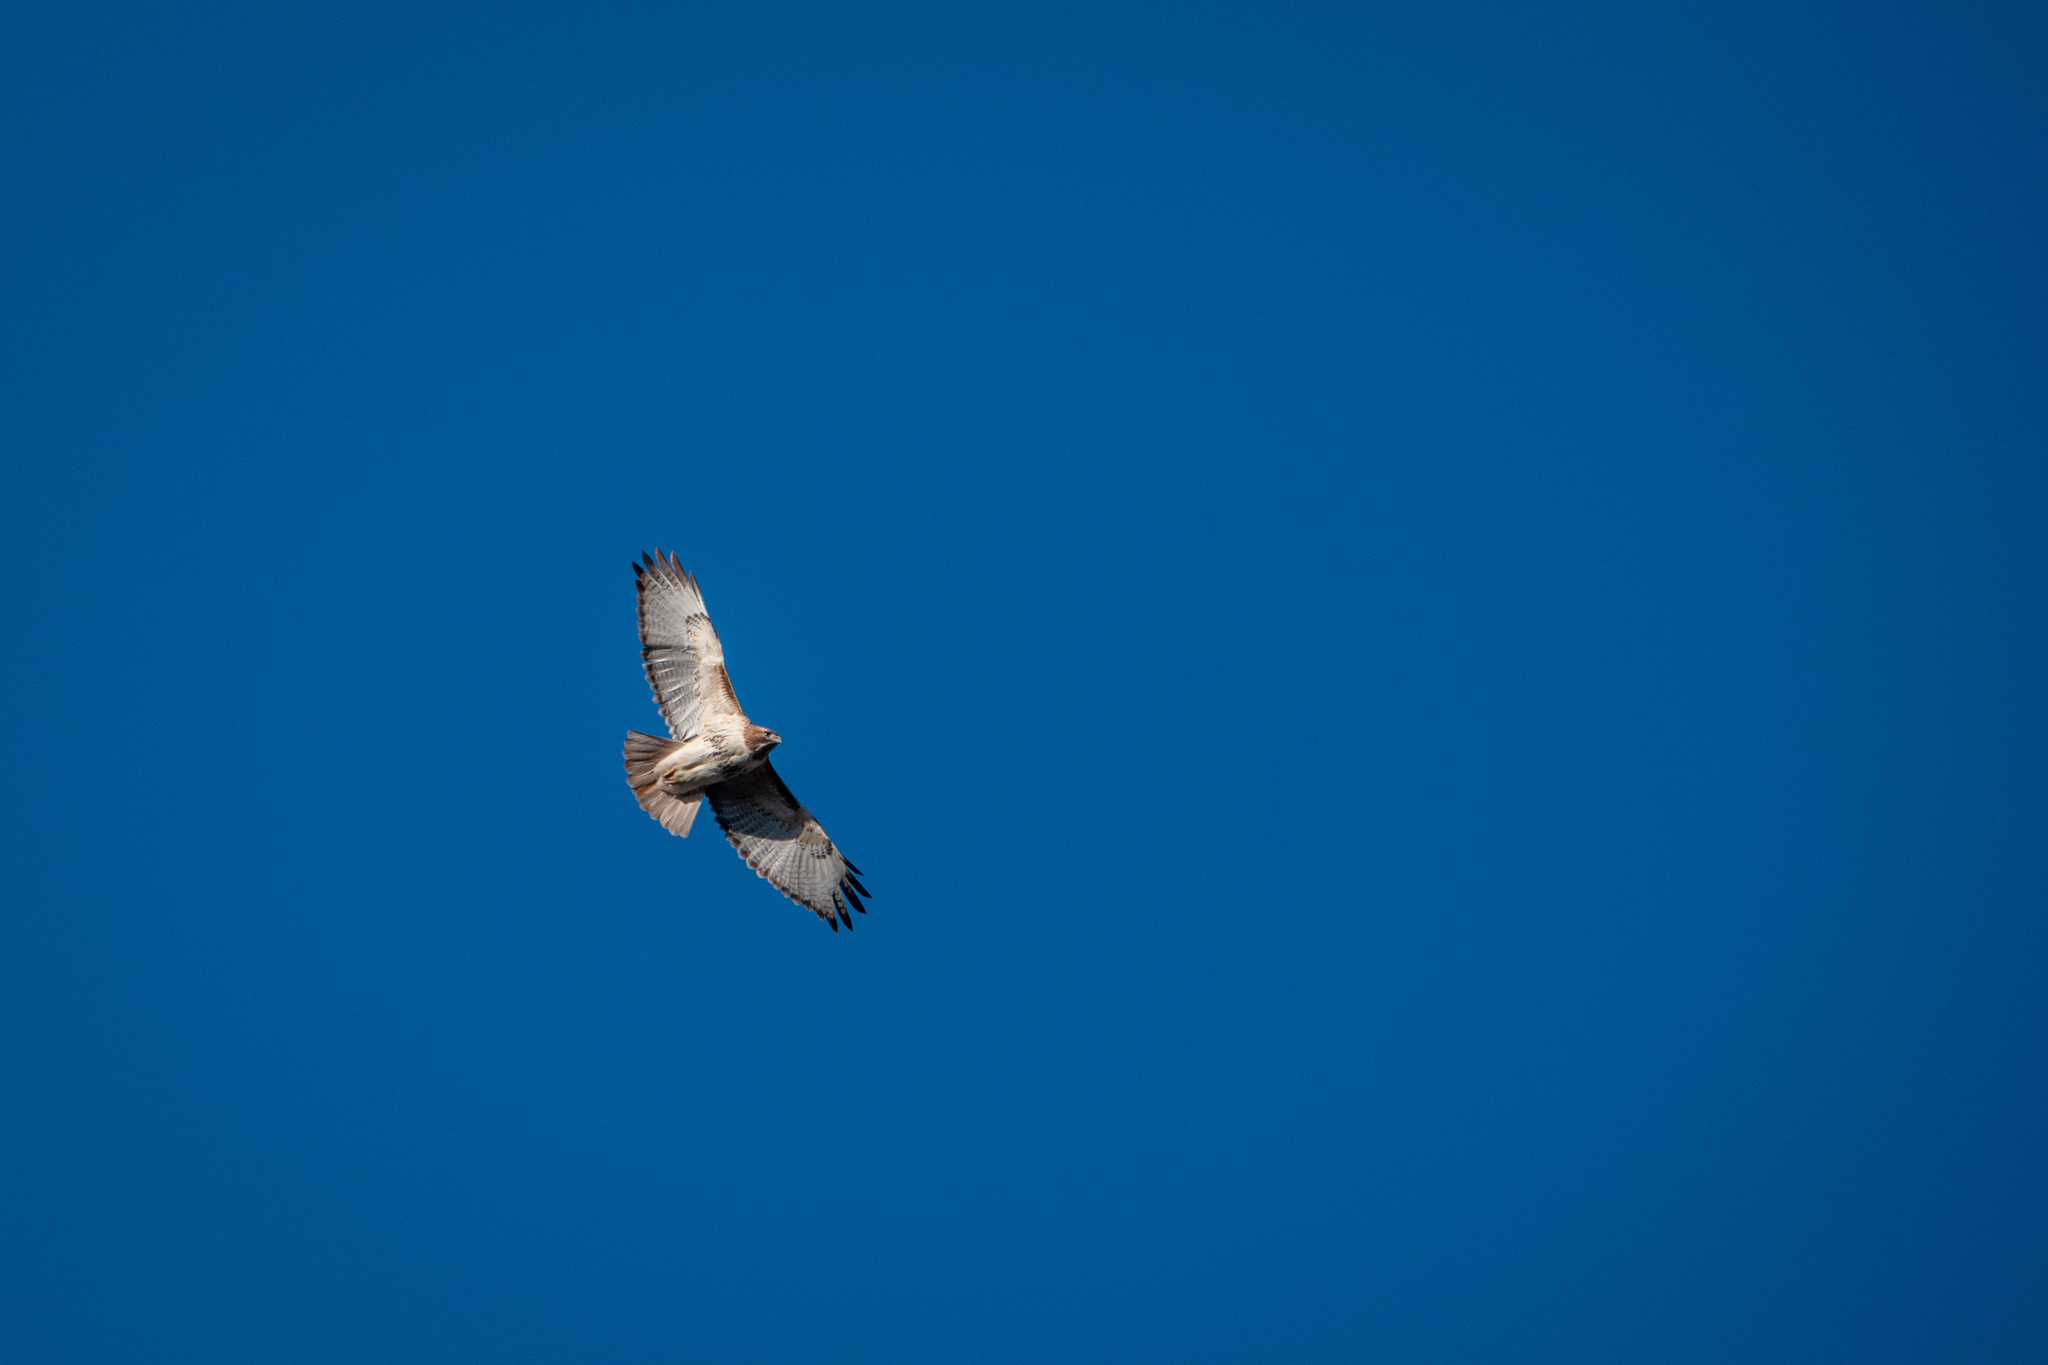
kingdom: Animalia
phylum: Chordata
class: Aves
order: Accipitriformes
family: Accipitridae
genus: Buteo
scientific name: Buteo jamaicensis
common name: Red-tailed hawk
